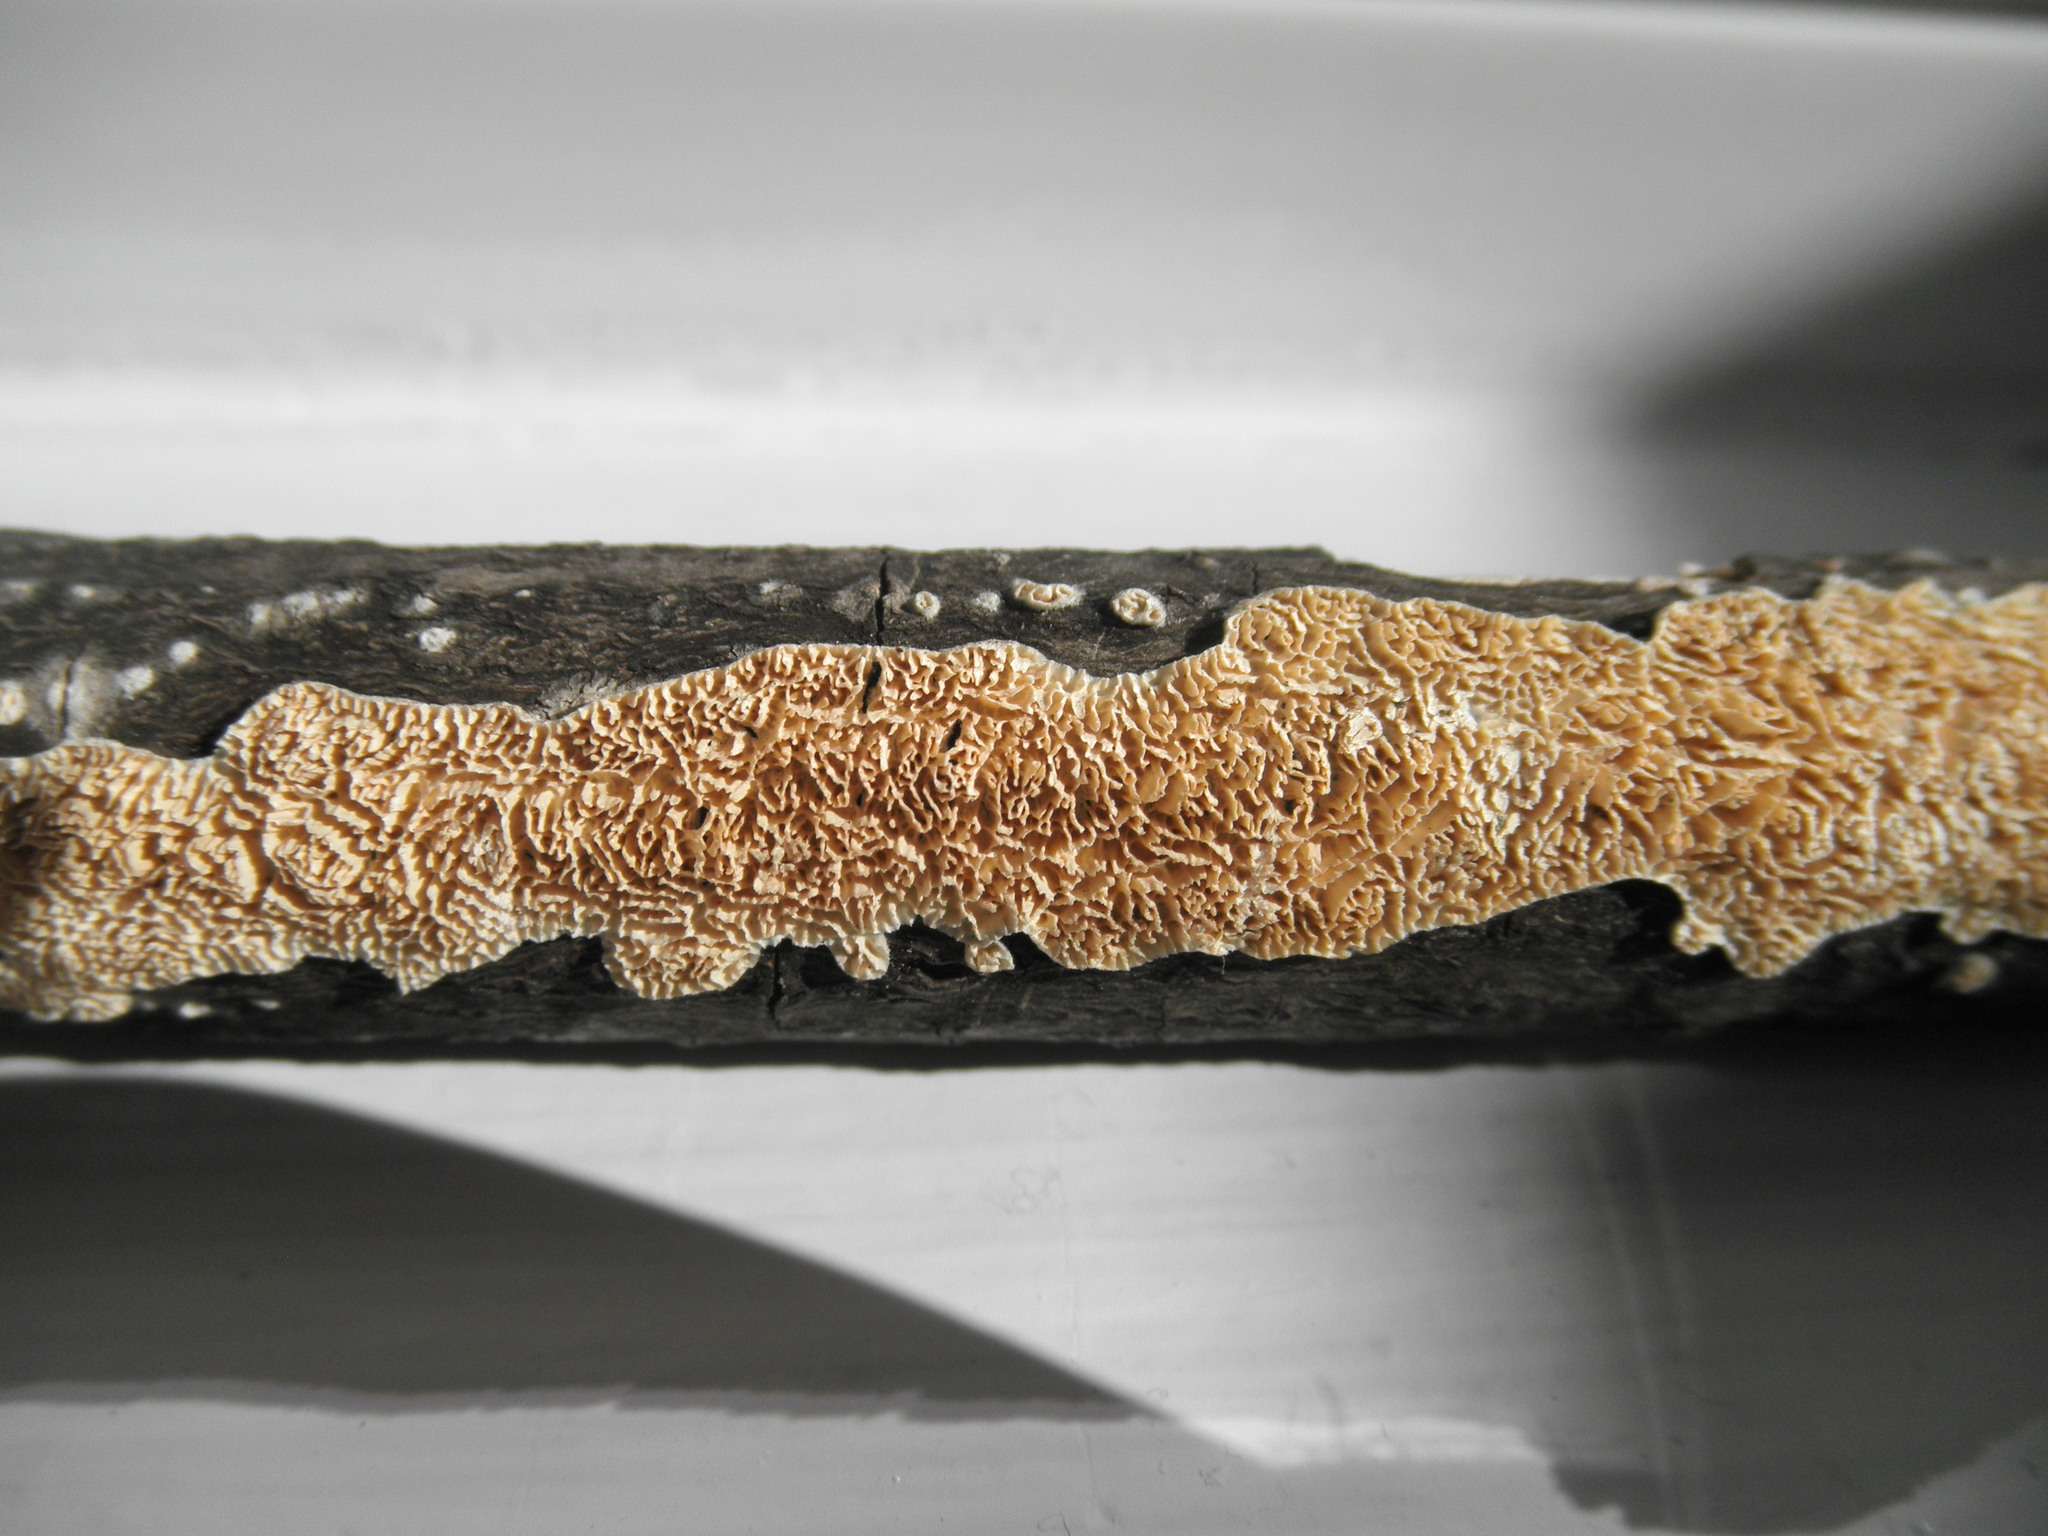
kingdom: Fungi
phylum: Basidiomycota
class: Agaricomycetes
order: Polyporales
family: Irpicaceae
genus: Irpex
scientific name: Irpex lacteus
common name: Milk-white toothed polypore
